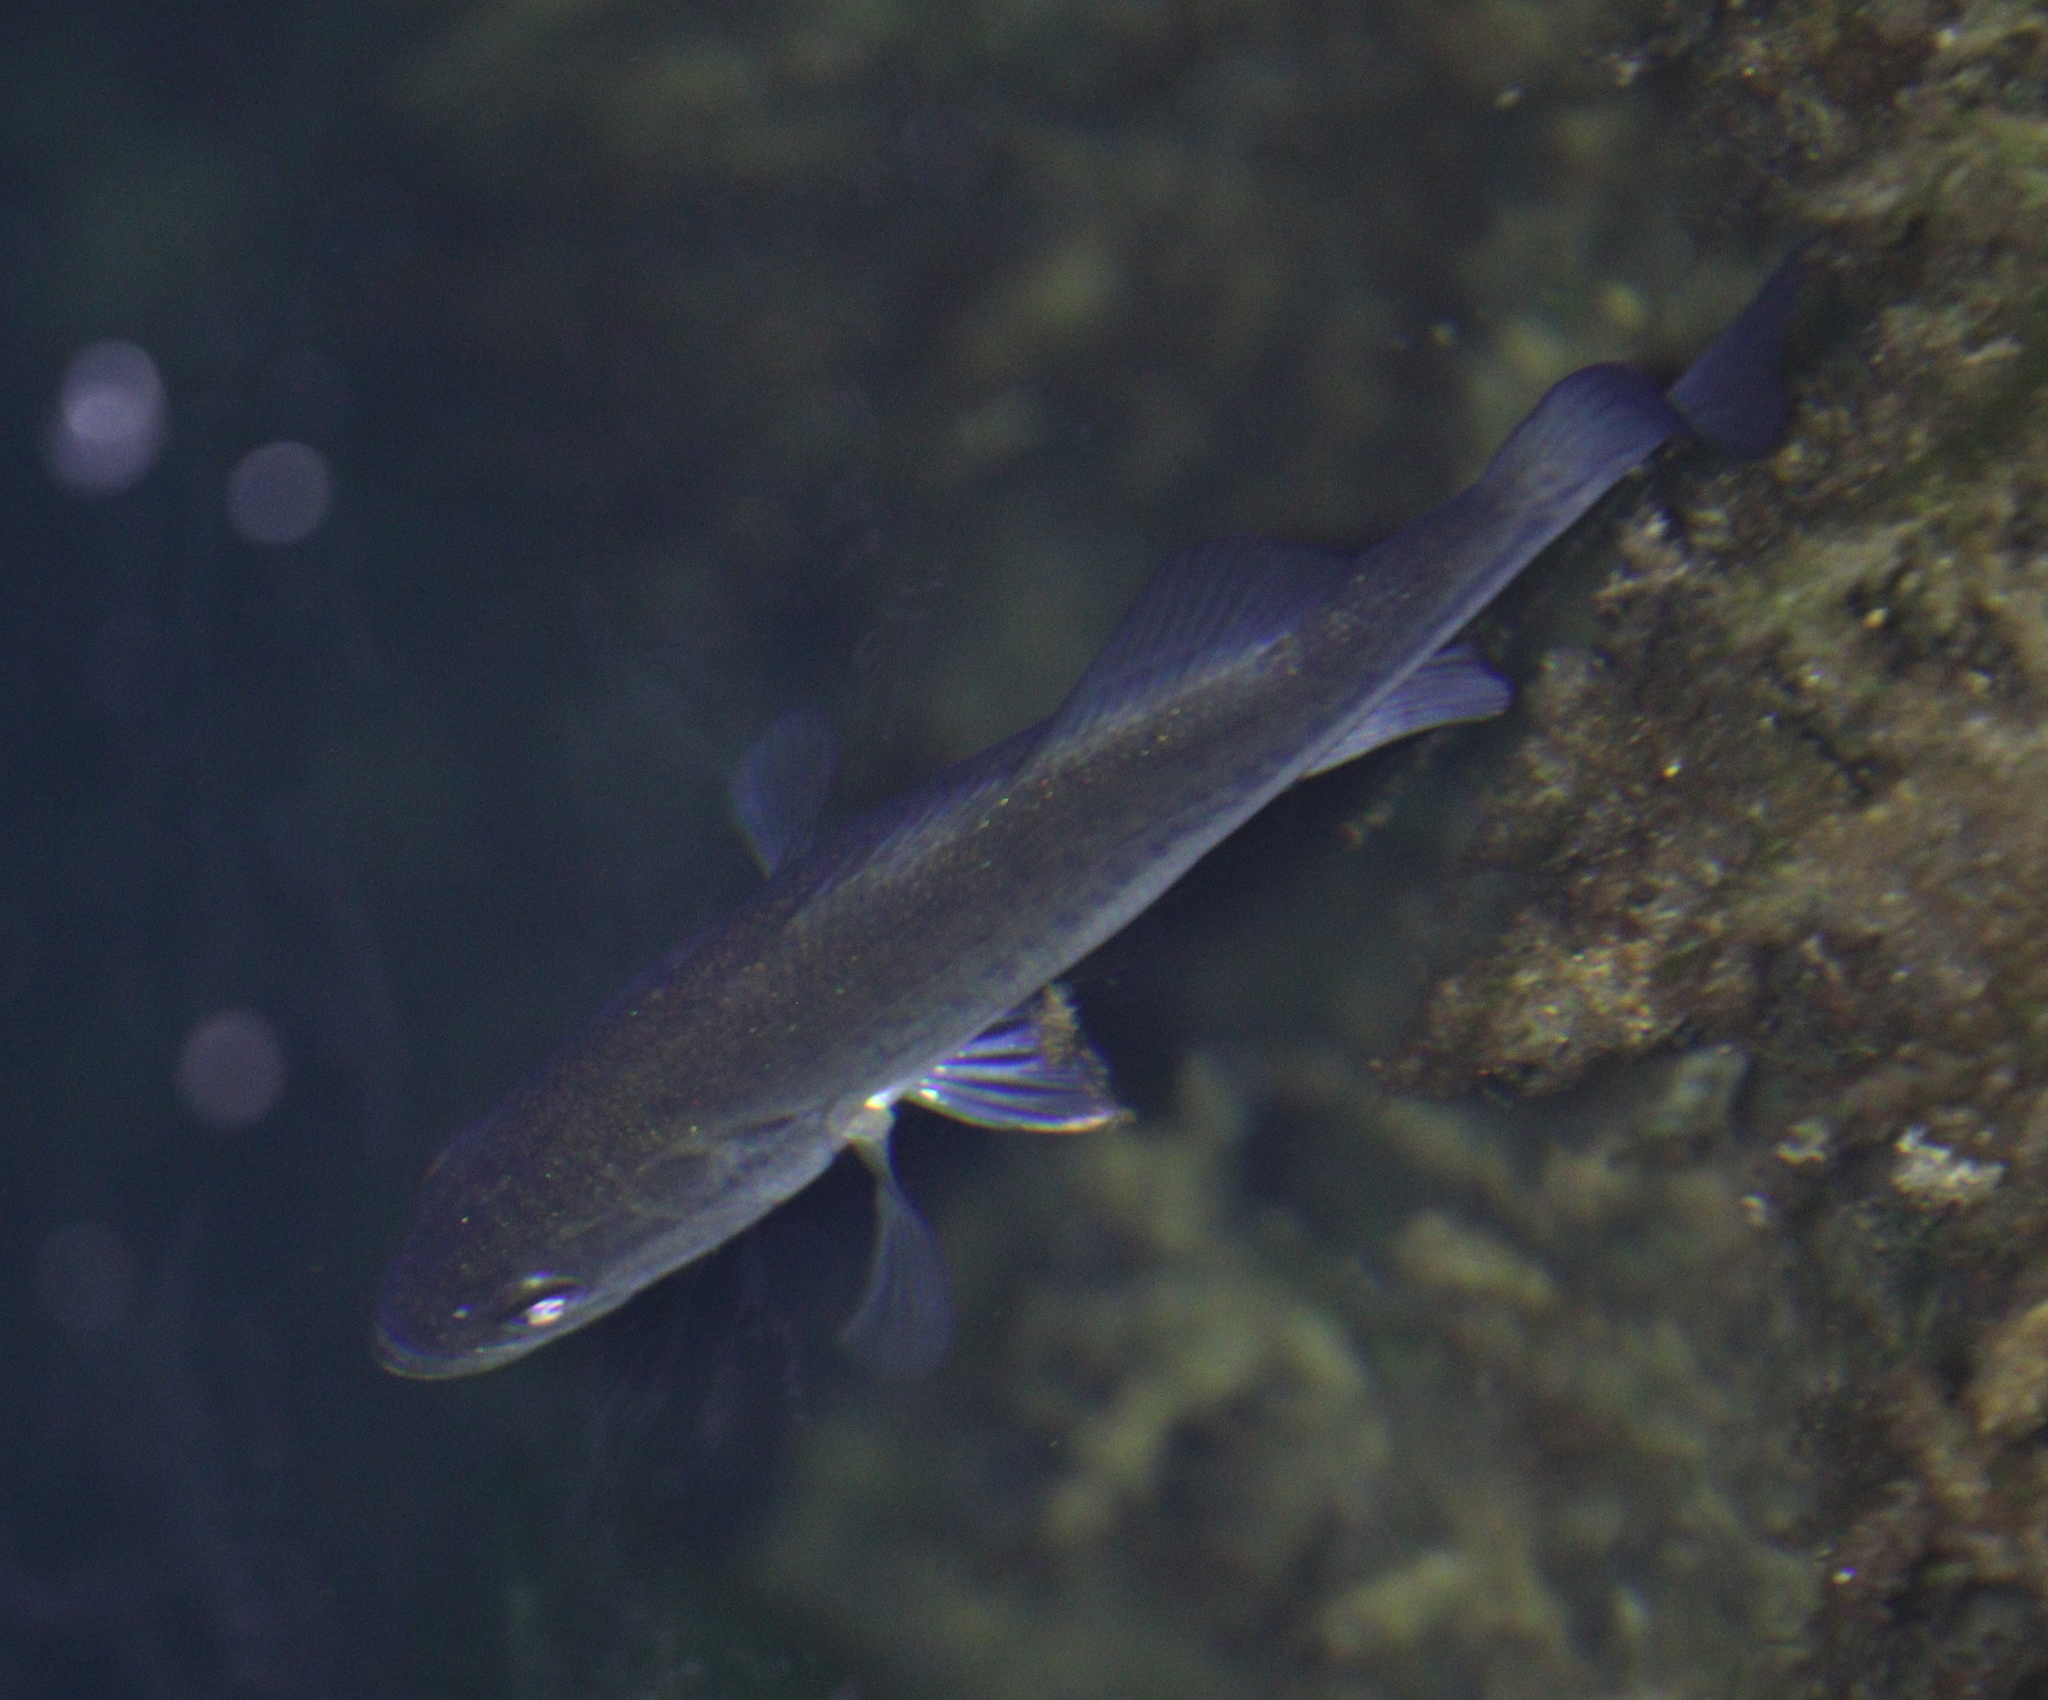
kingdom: Animalia
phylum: Chordata
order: Perciformes
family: Centrarchidae
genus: Micropterus
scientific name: Micropterus
